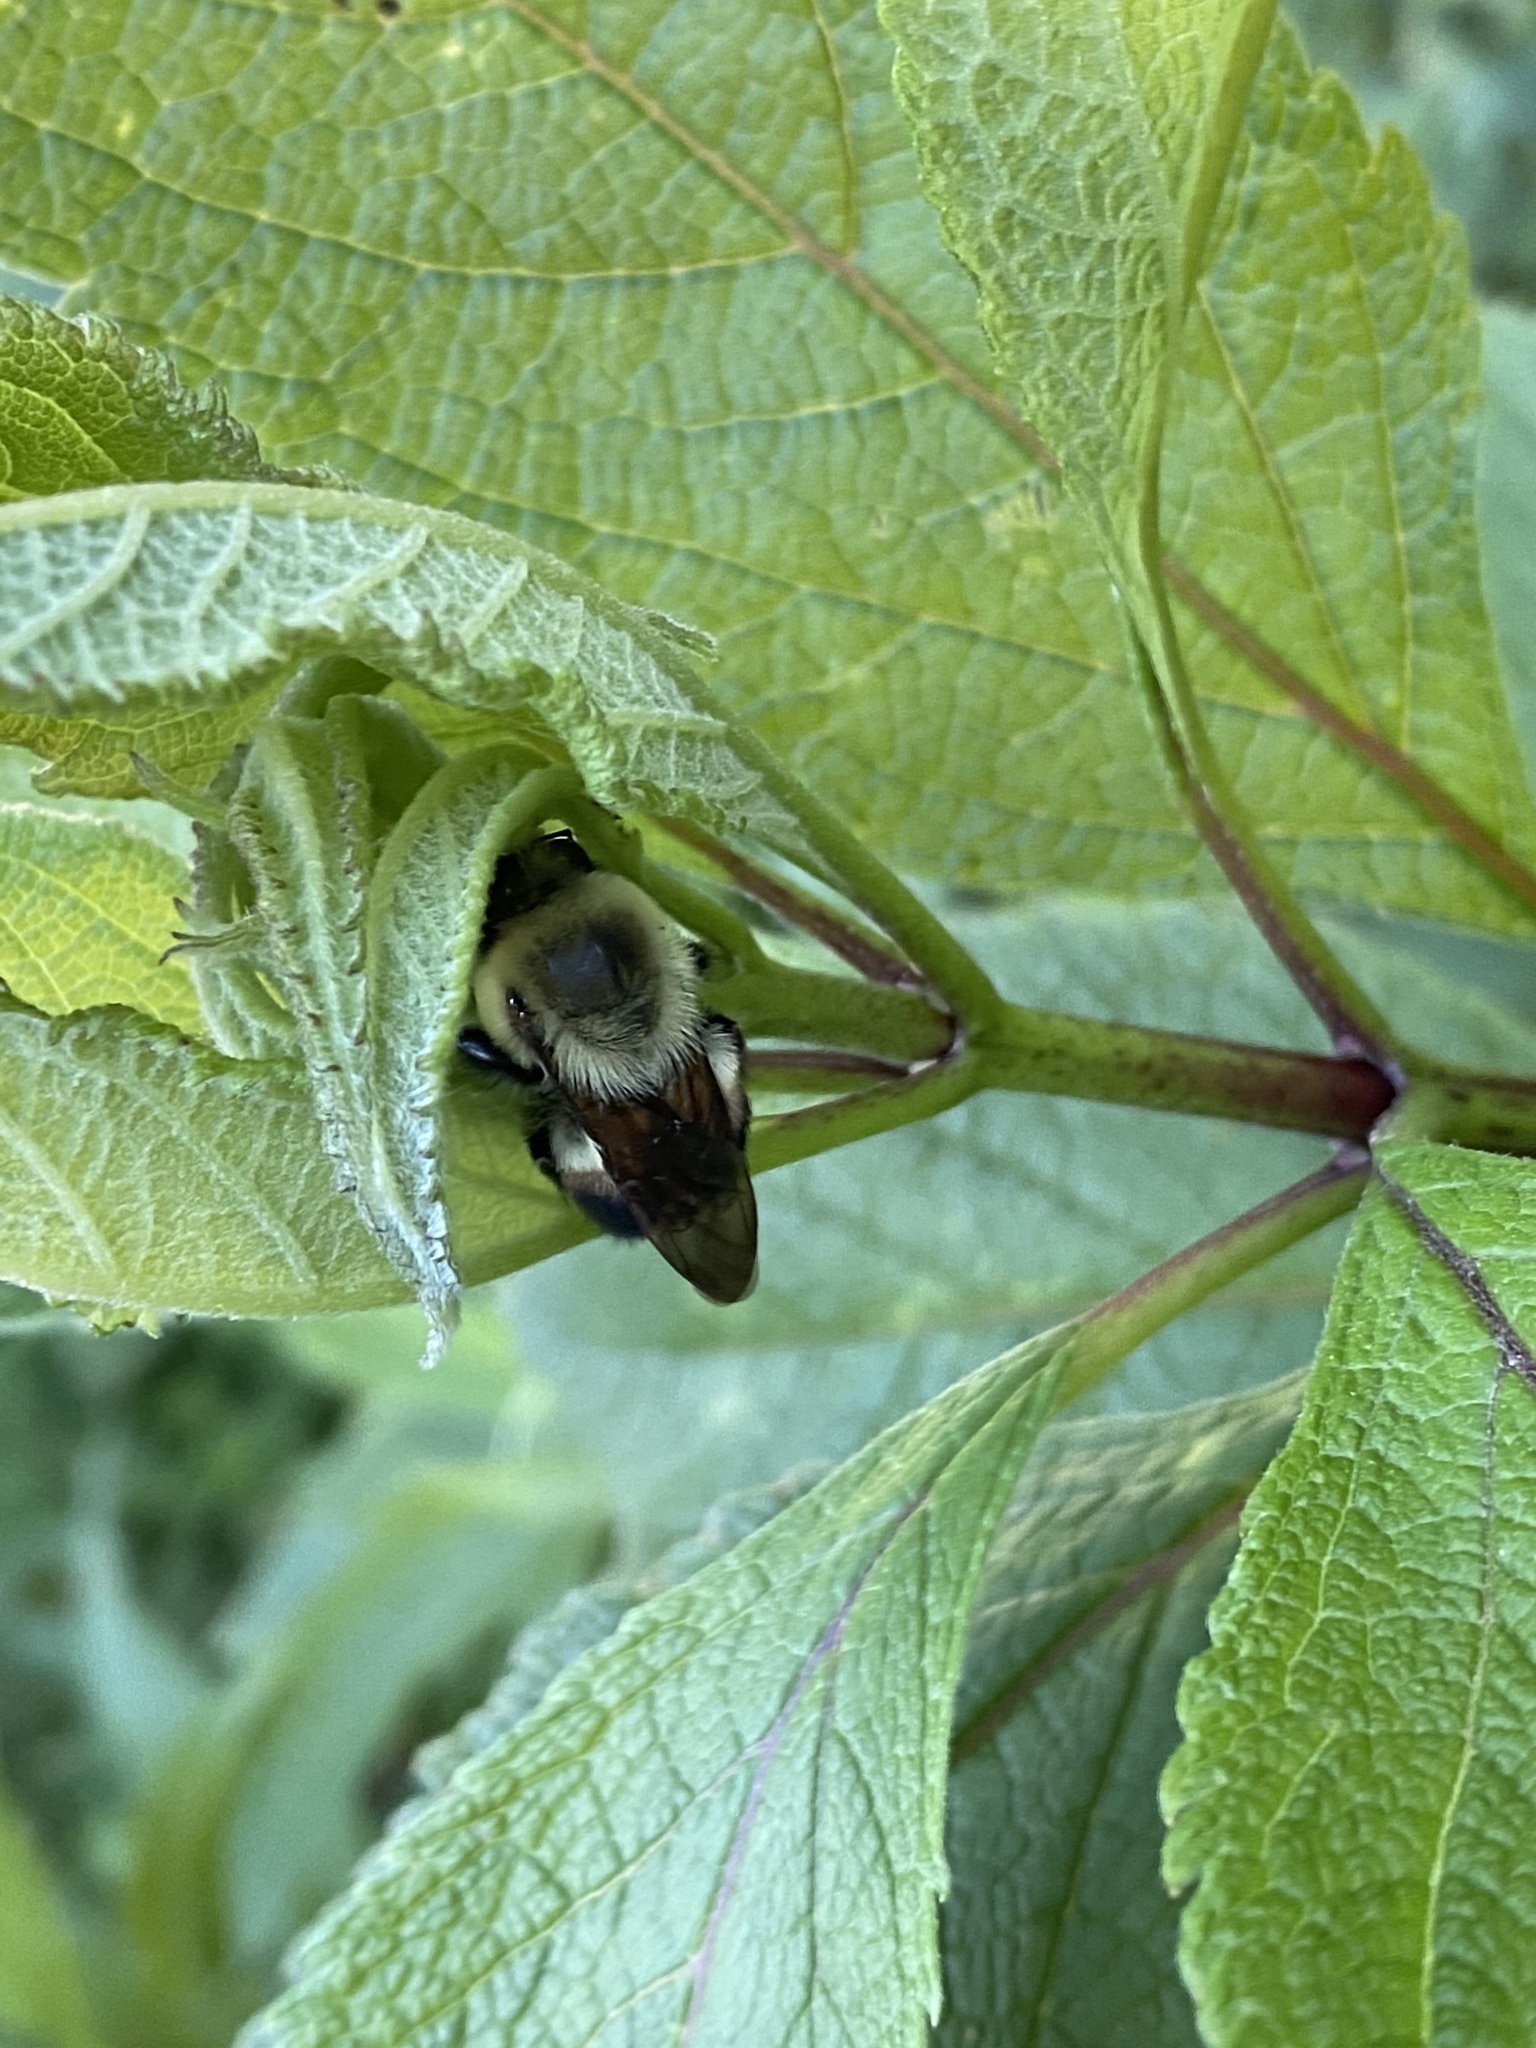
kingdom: Animalia
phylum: Arthropoda
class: Insecta
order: Hymenoptera
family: Apidae
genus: Bombus
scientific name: Bombus griseocollis
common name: Brown-belted bumble bee
